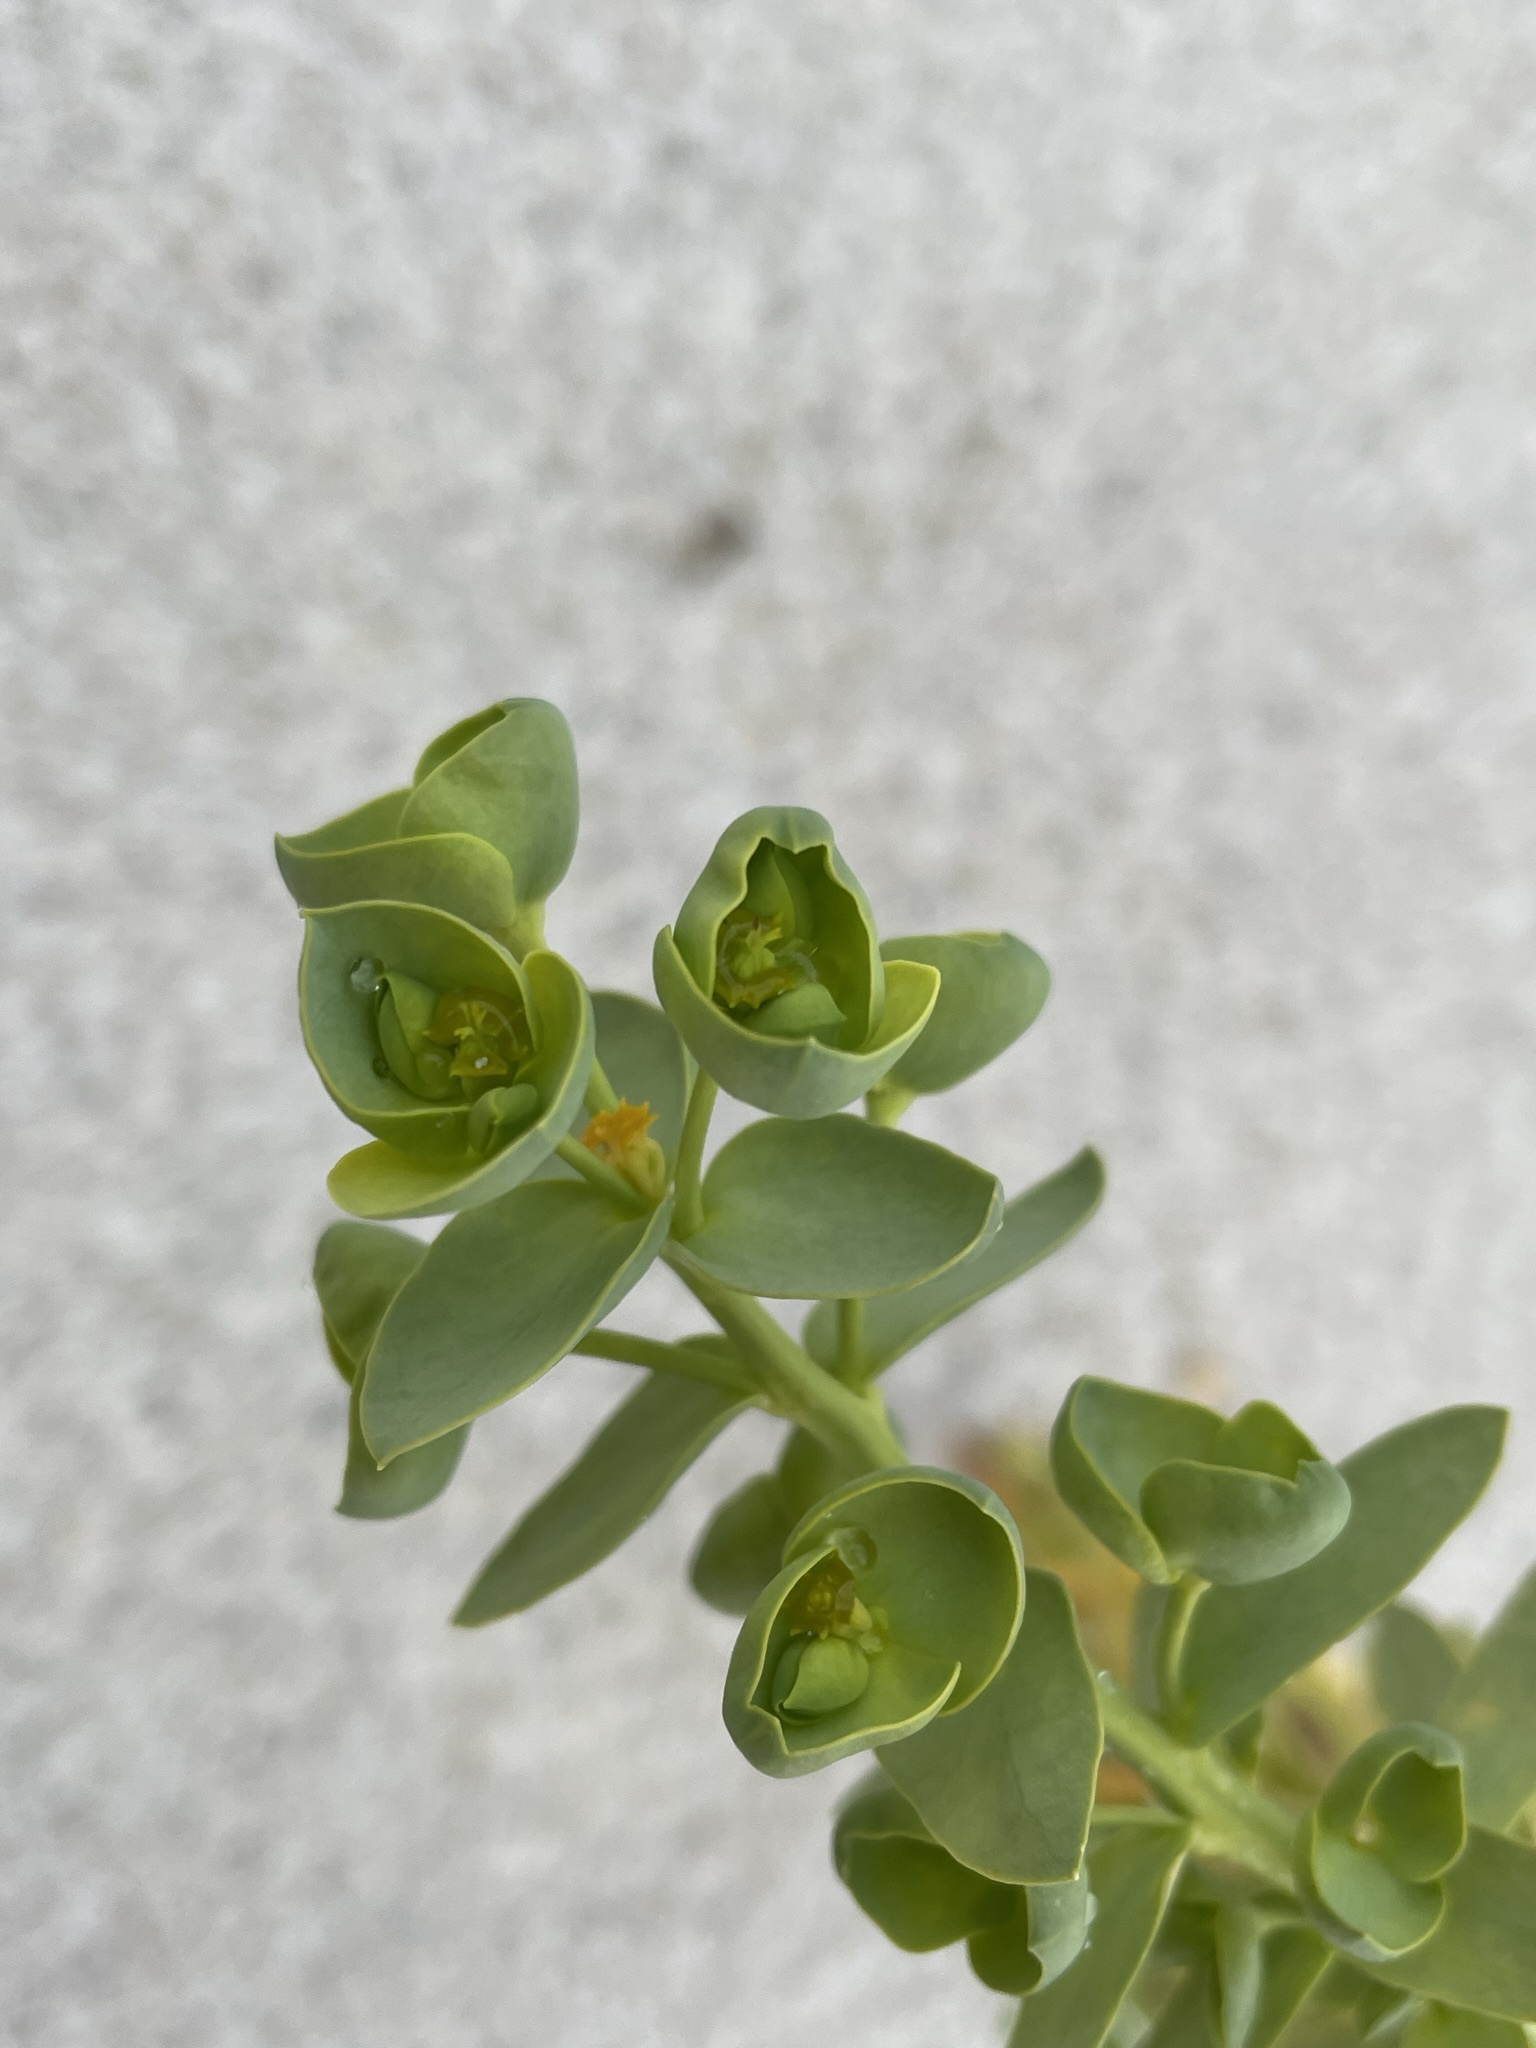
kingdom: Plantae
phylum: Tracheophyta
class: Magnoliopsida
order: Malpighiales
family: Euphorbiaceae
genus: Euphorbia
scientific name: Euphorbia paralias
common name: Sea spurge
